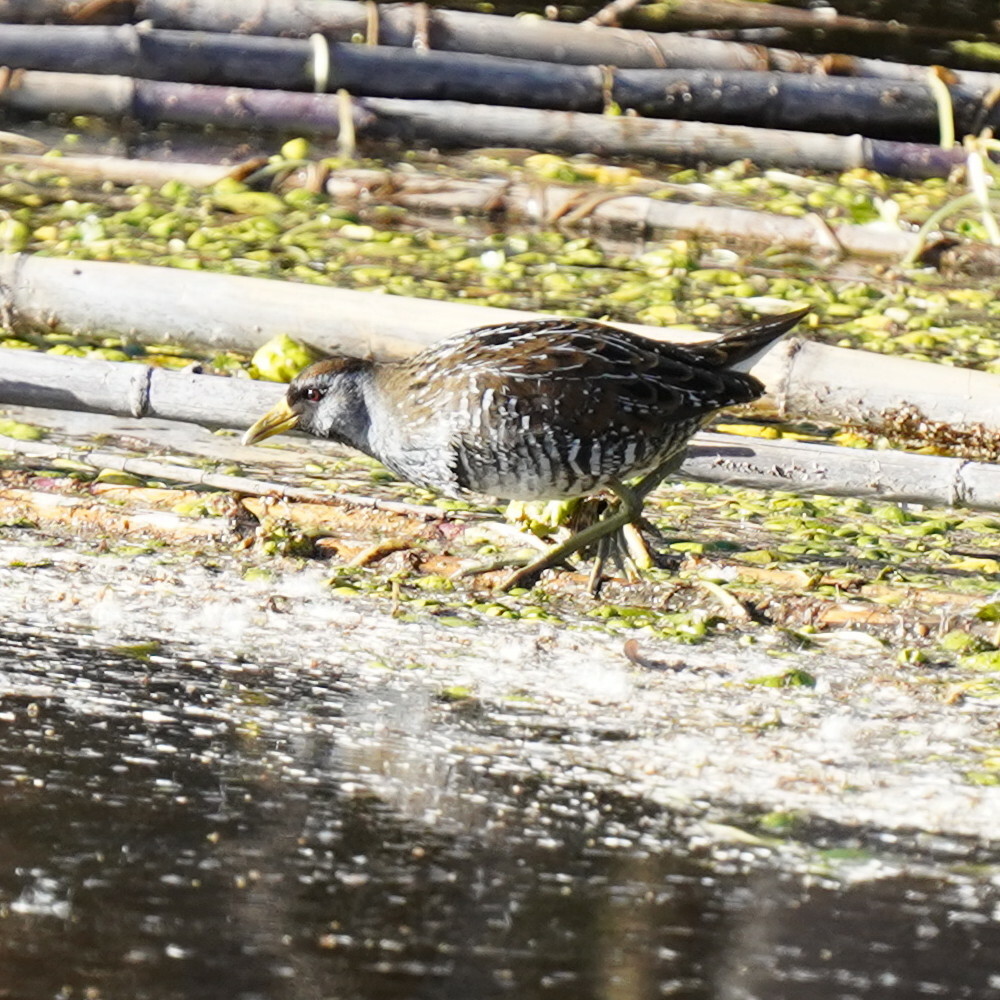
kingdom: Animalia
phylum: Chordata
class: Aves
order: Gruiformes
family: Rallidae
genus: Porzana
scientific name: Porzana carolina
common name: Sora
